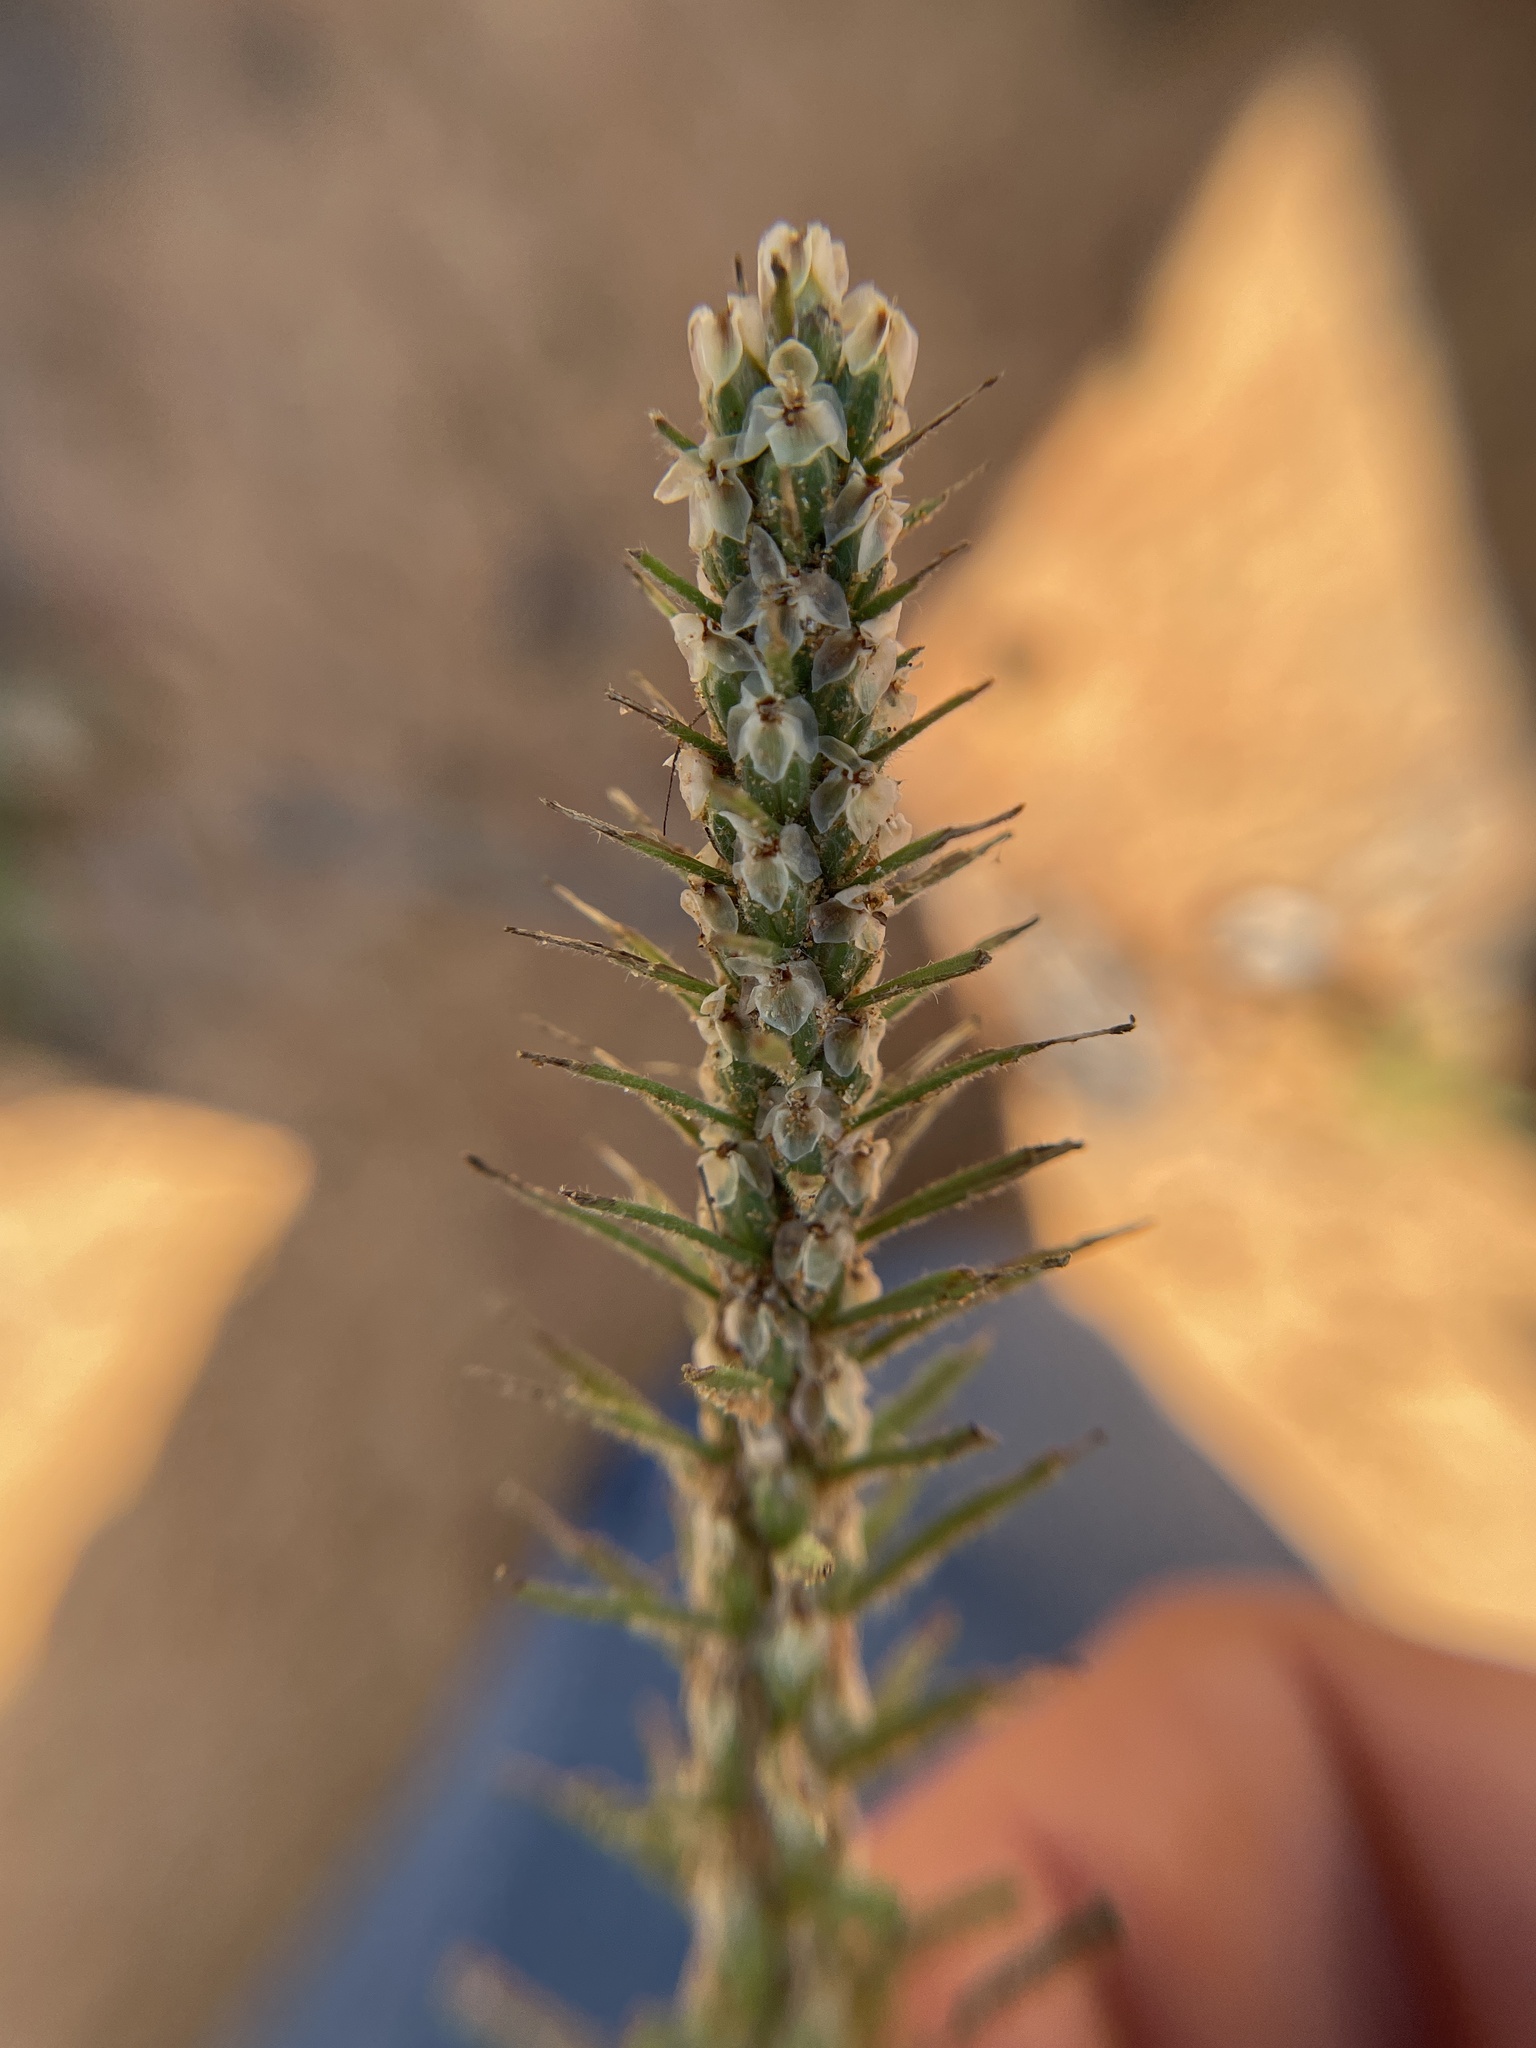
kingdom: Plantae
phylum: Tracheophyta
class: Magnoliopsida
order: Lamiales
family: Plantaginaceae
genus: Plantago
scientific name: Plantago aristata
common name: Bracted plantain
